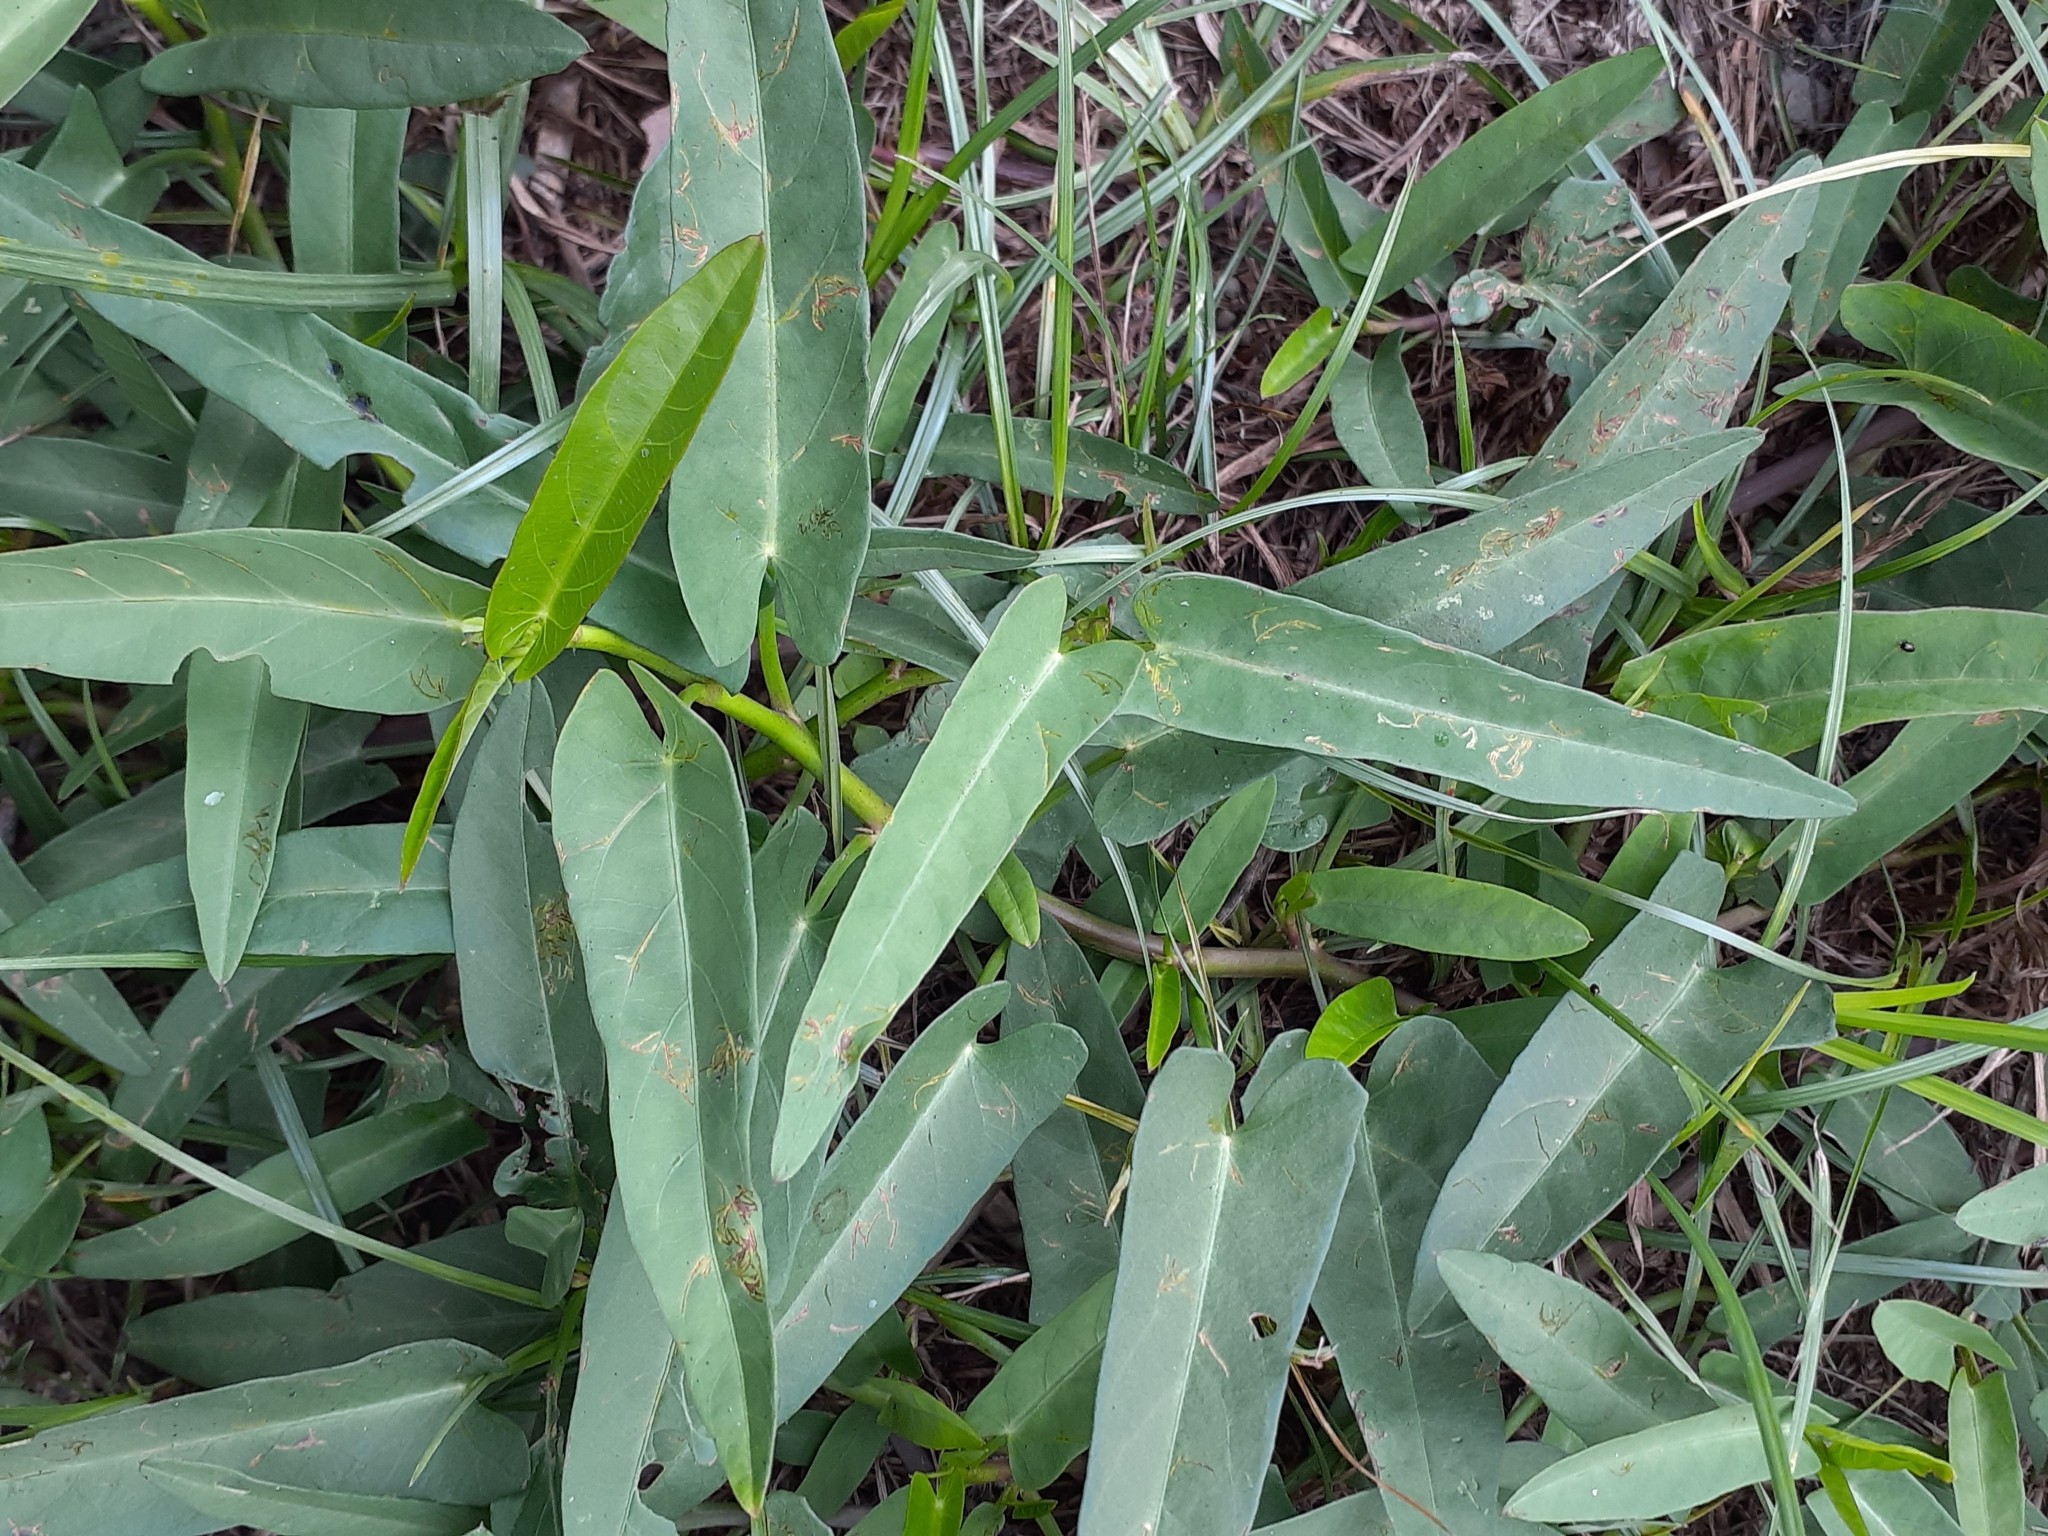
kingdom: Plantae
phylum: Tracheophyta
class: Magnoliopsida
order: Solanales
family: Convolvulaceae
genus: Ipomoea
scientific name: Ipomoea aquatica
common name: Swamp morning-glory
